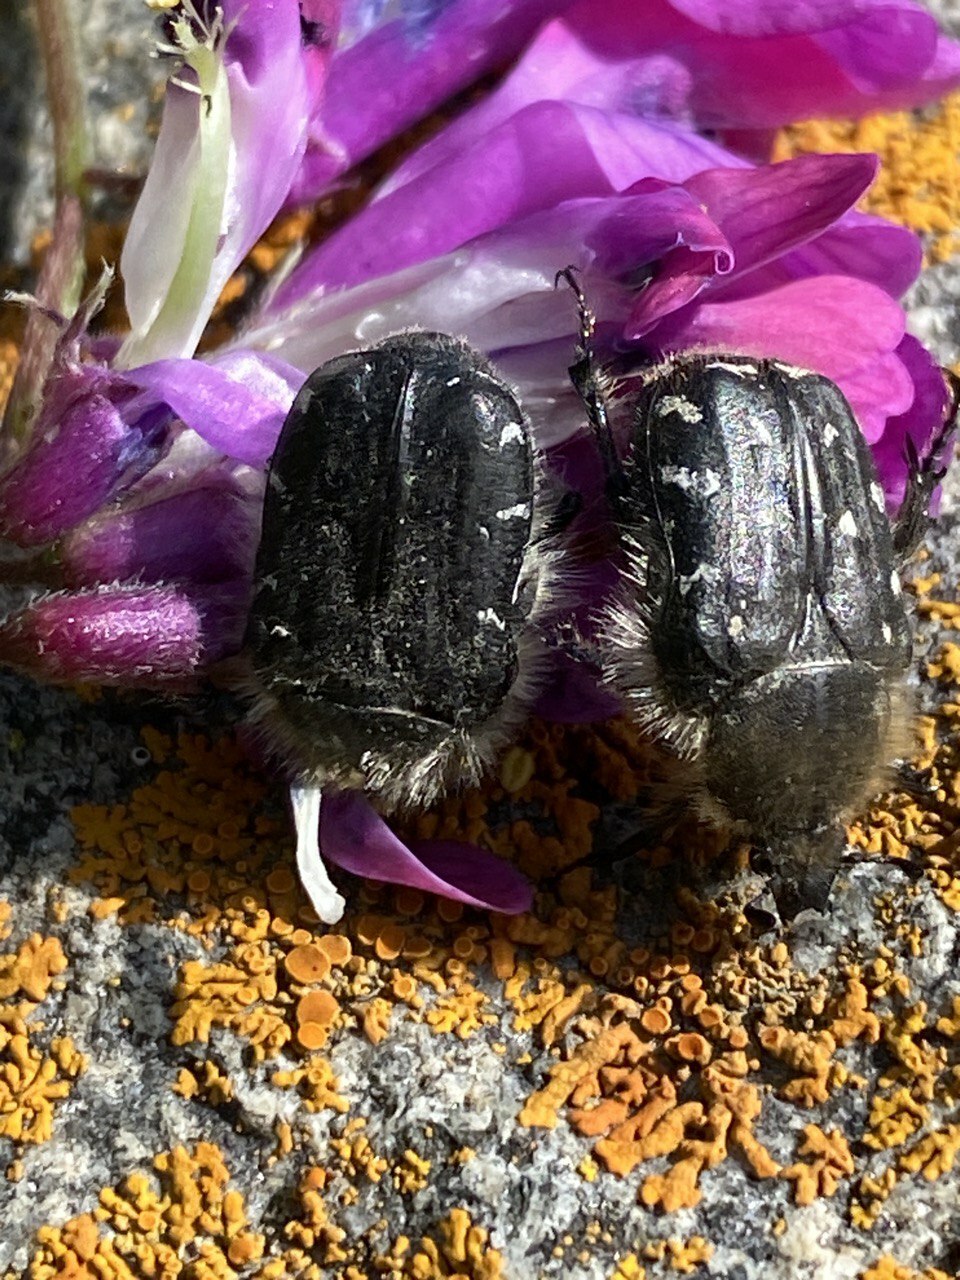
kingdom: Animalia
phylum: Arthropoda
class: Insecta
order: Coleoptera
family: Scarabaeidae
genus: Tropinota
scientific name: Tropinota hirta
